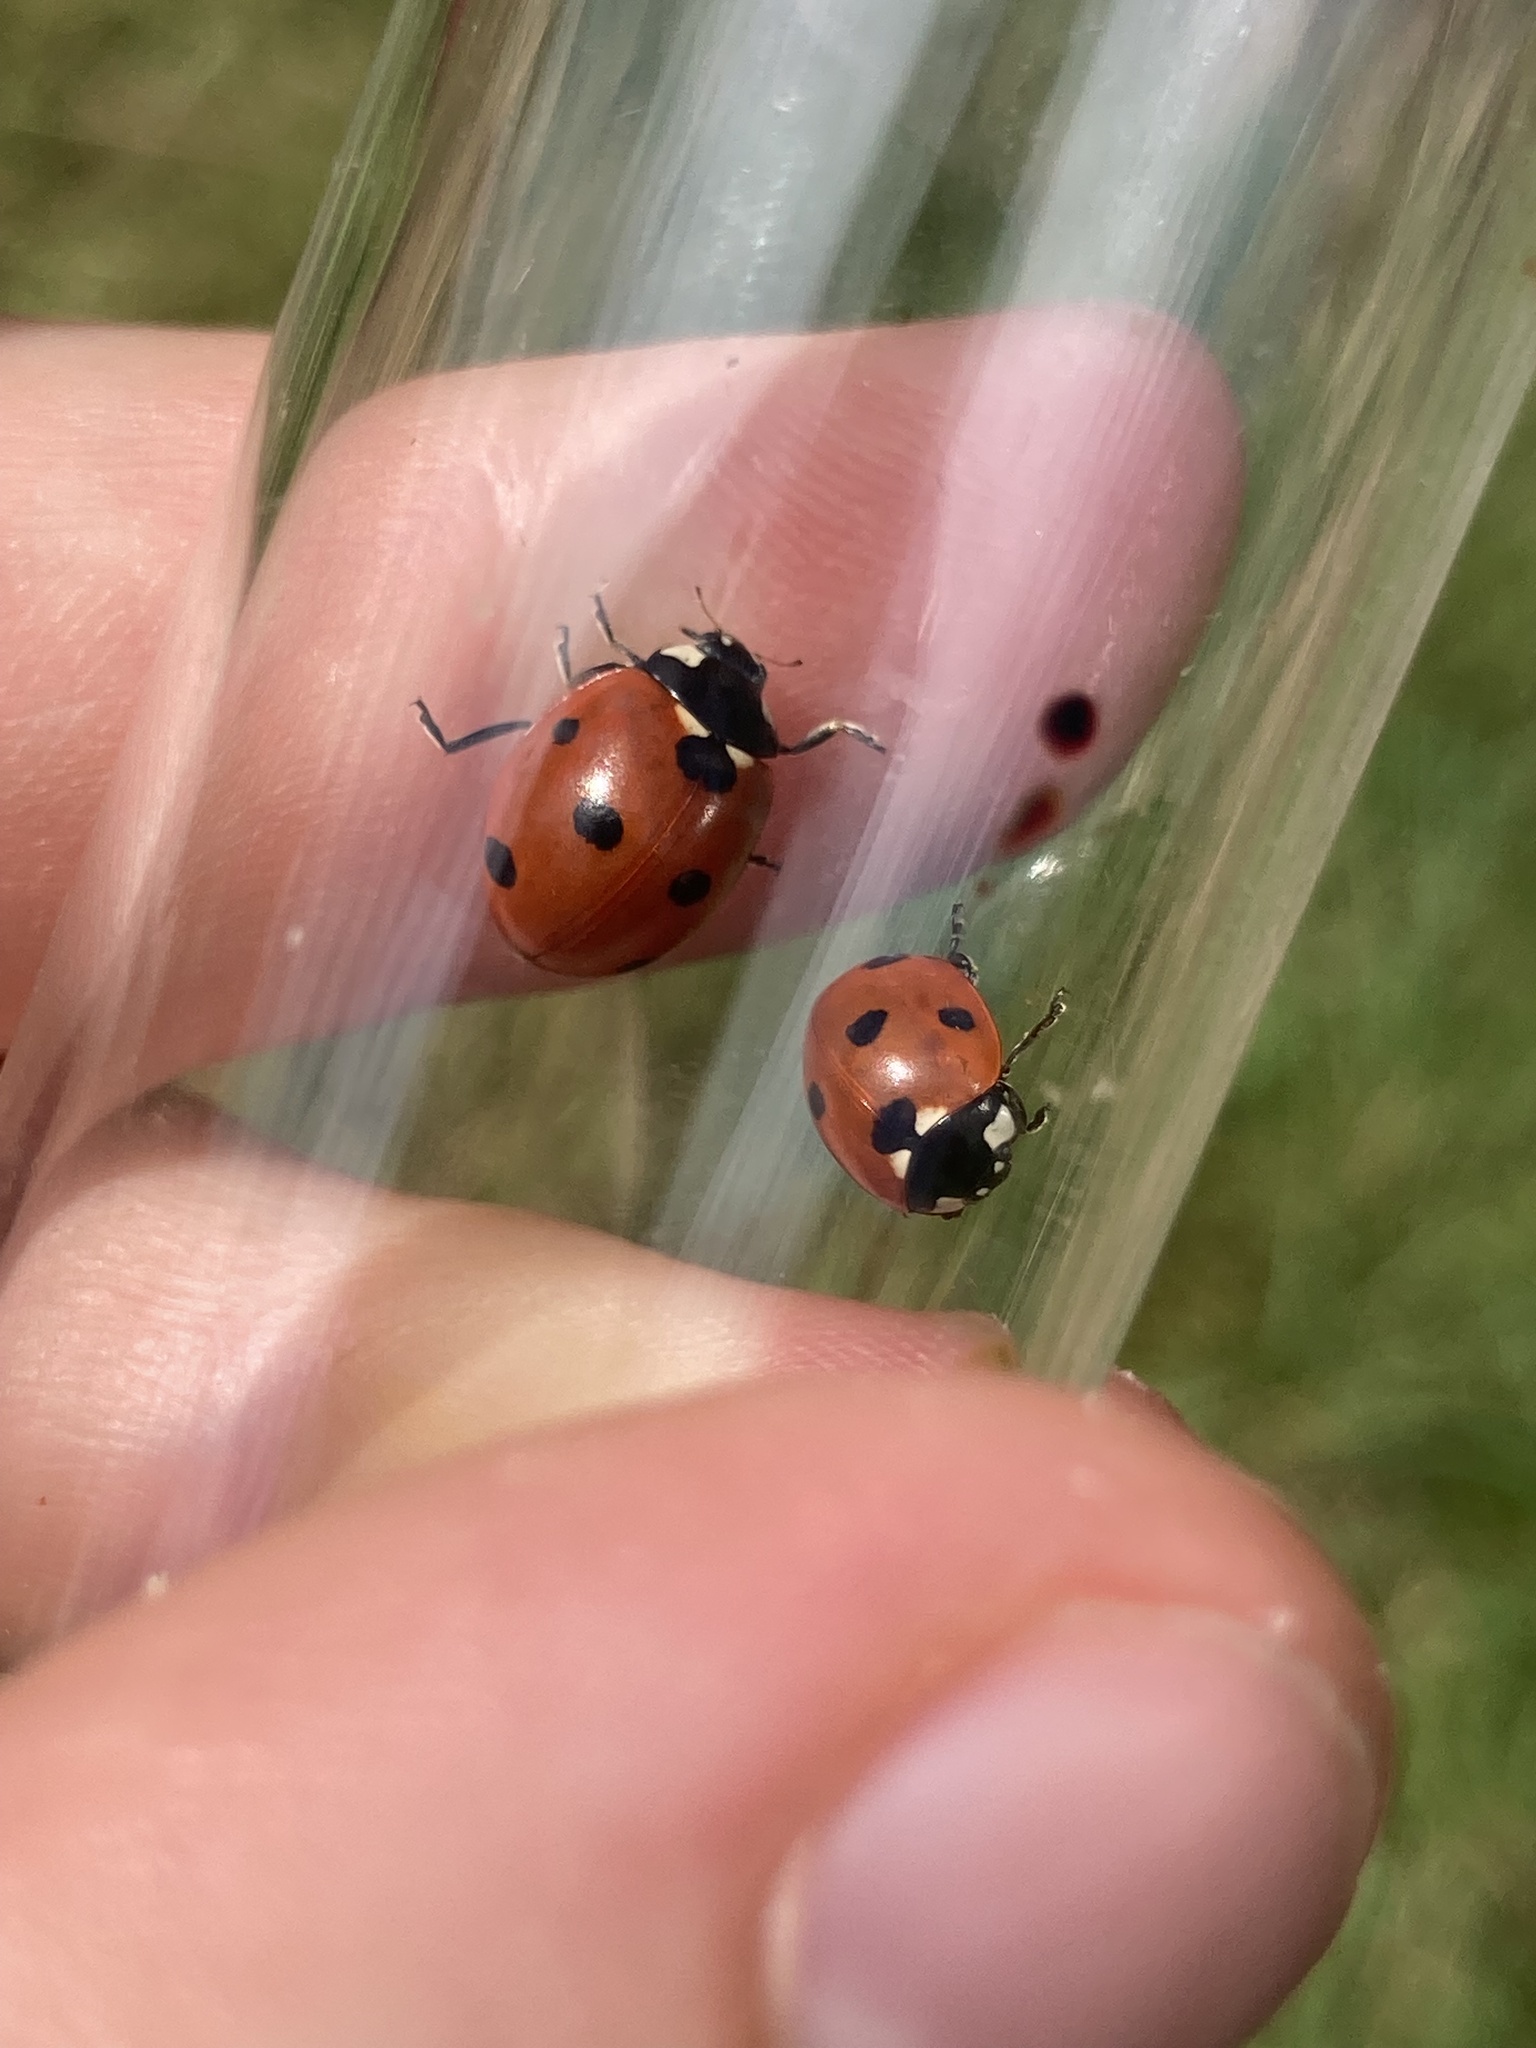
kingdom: Animalia
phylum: Arthropoda
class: Insecta
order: Coleoptera
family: Coccinellidae
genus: Coccinella
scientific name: Coccinella septempunctata
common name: Sevenspotted lady beetle
